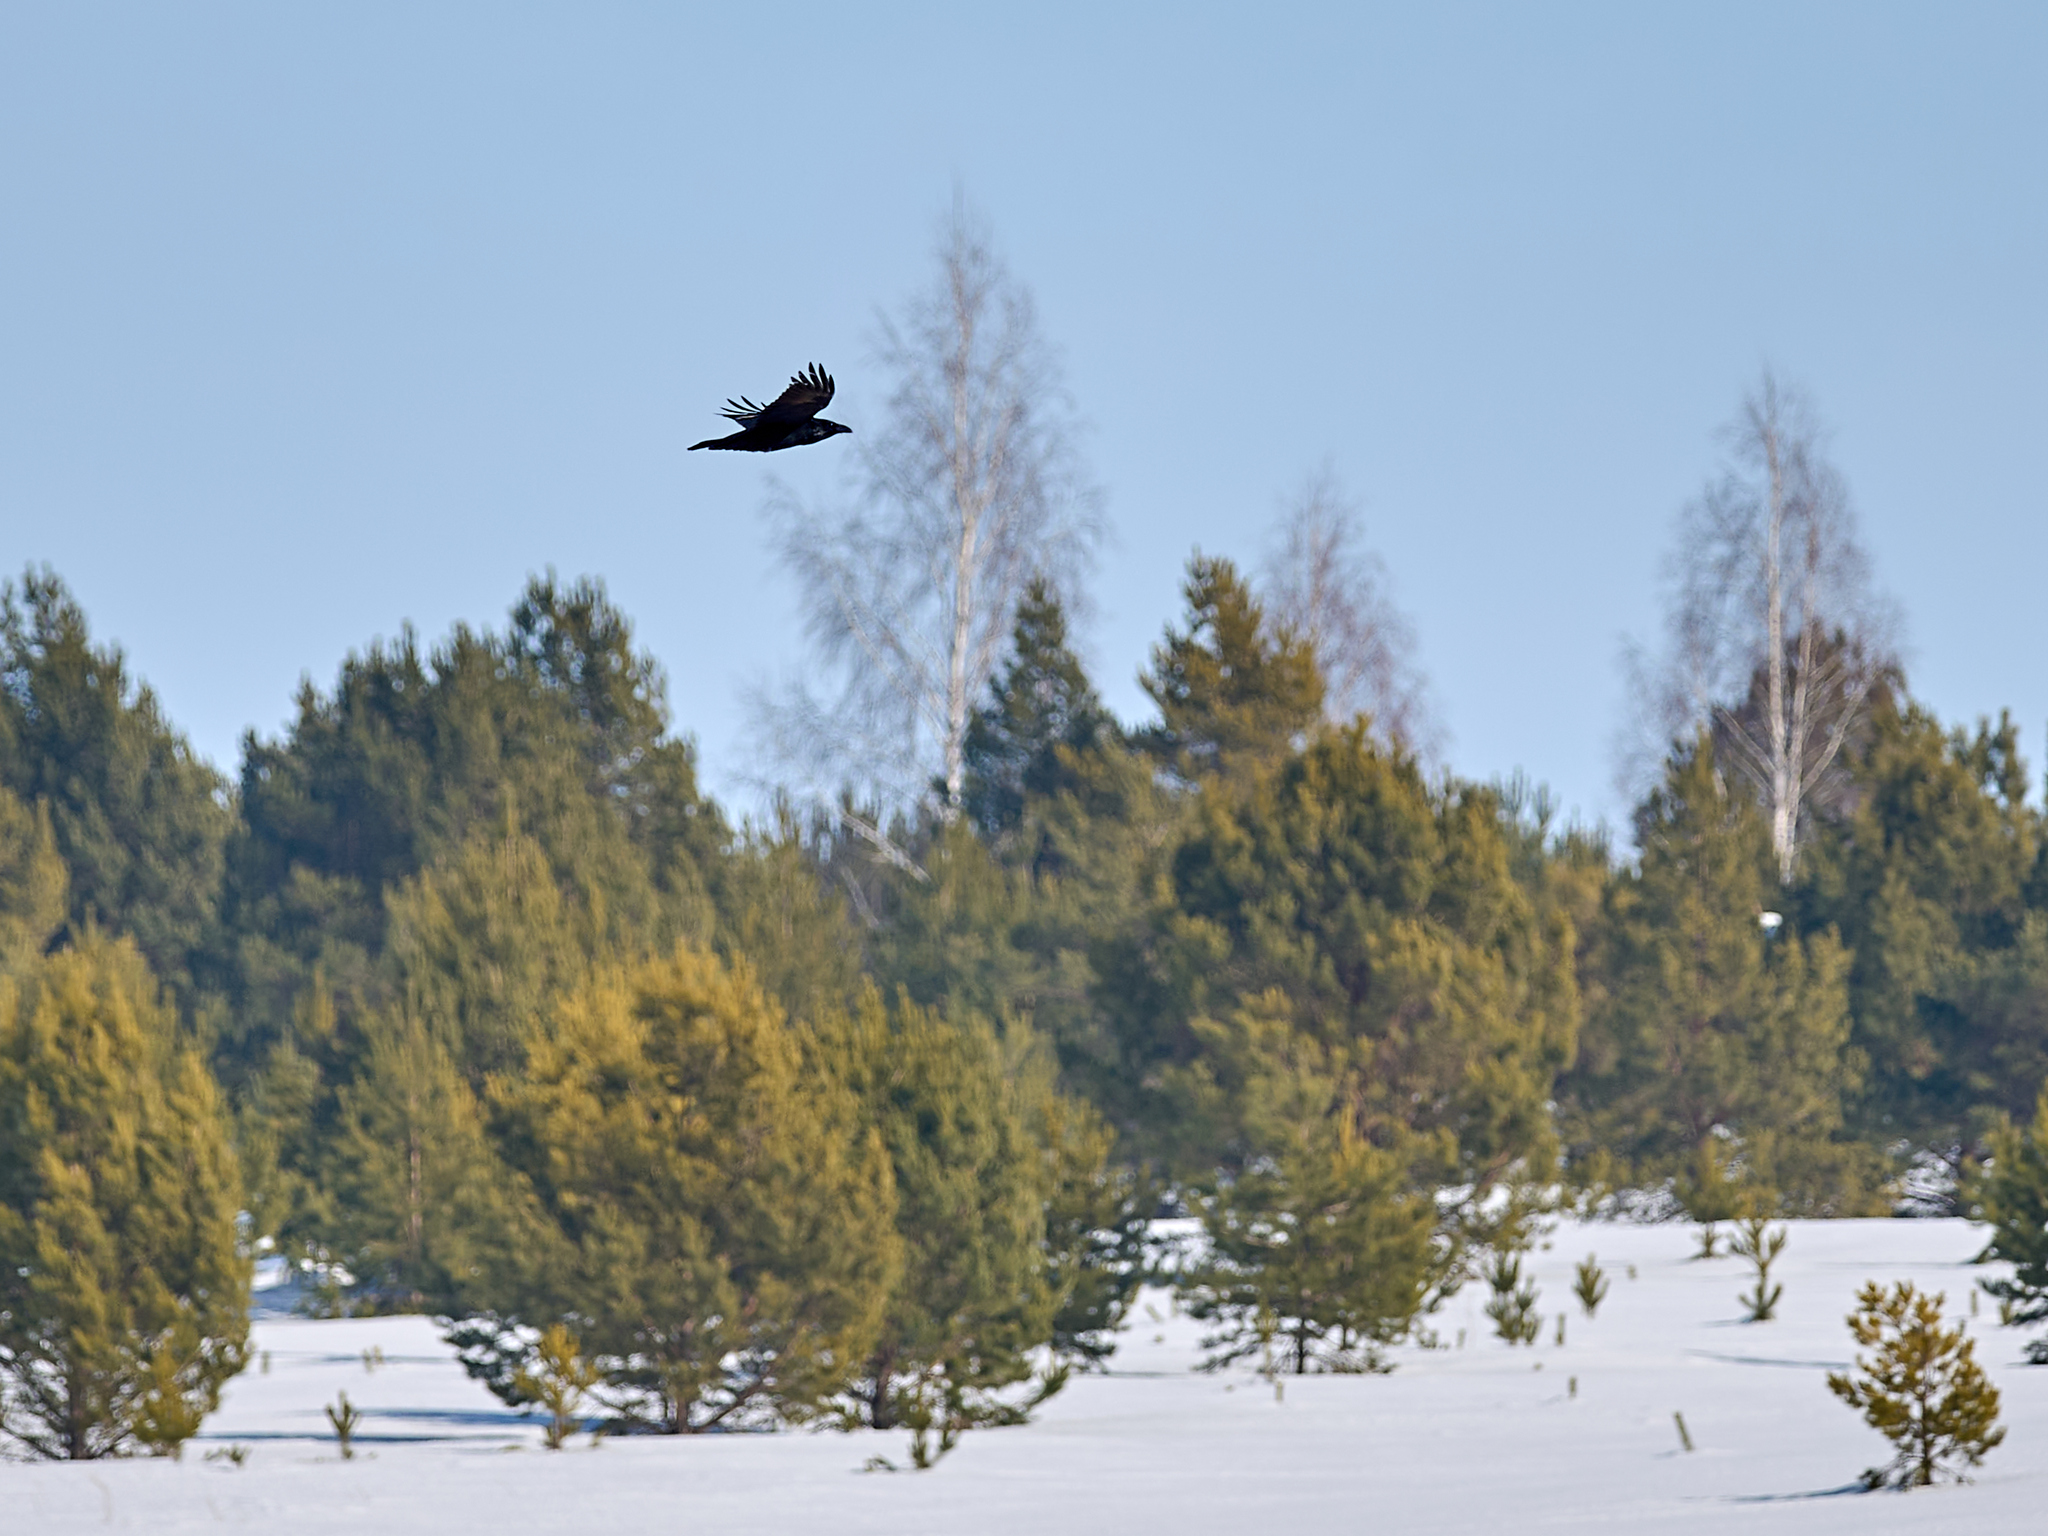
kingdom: Animalia
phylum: Chordata
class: Aves
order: Passeriformes
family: Corvidae
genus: Corvus
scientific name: Corvus corax
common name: Common raven
